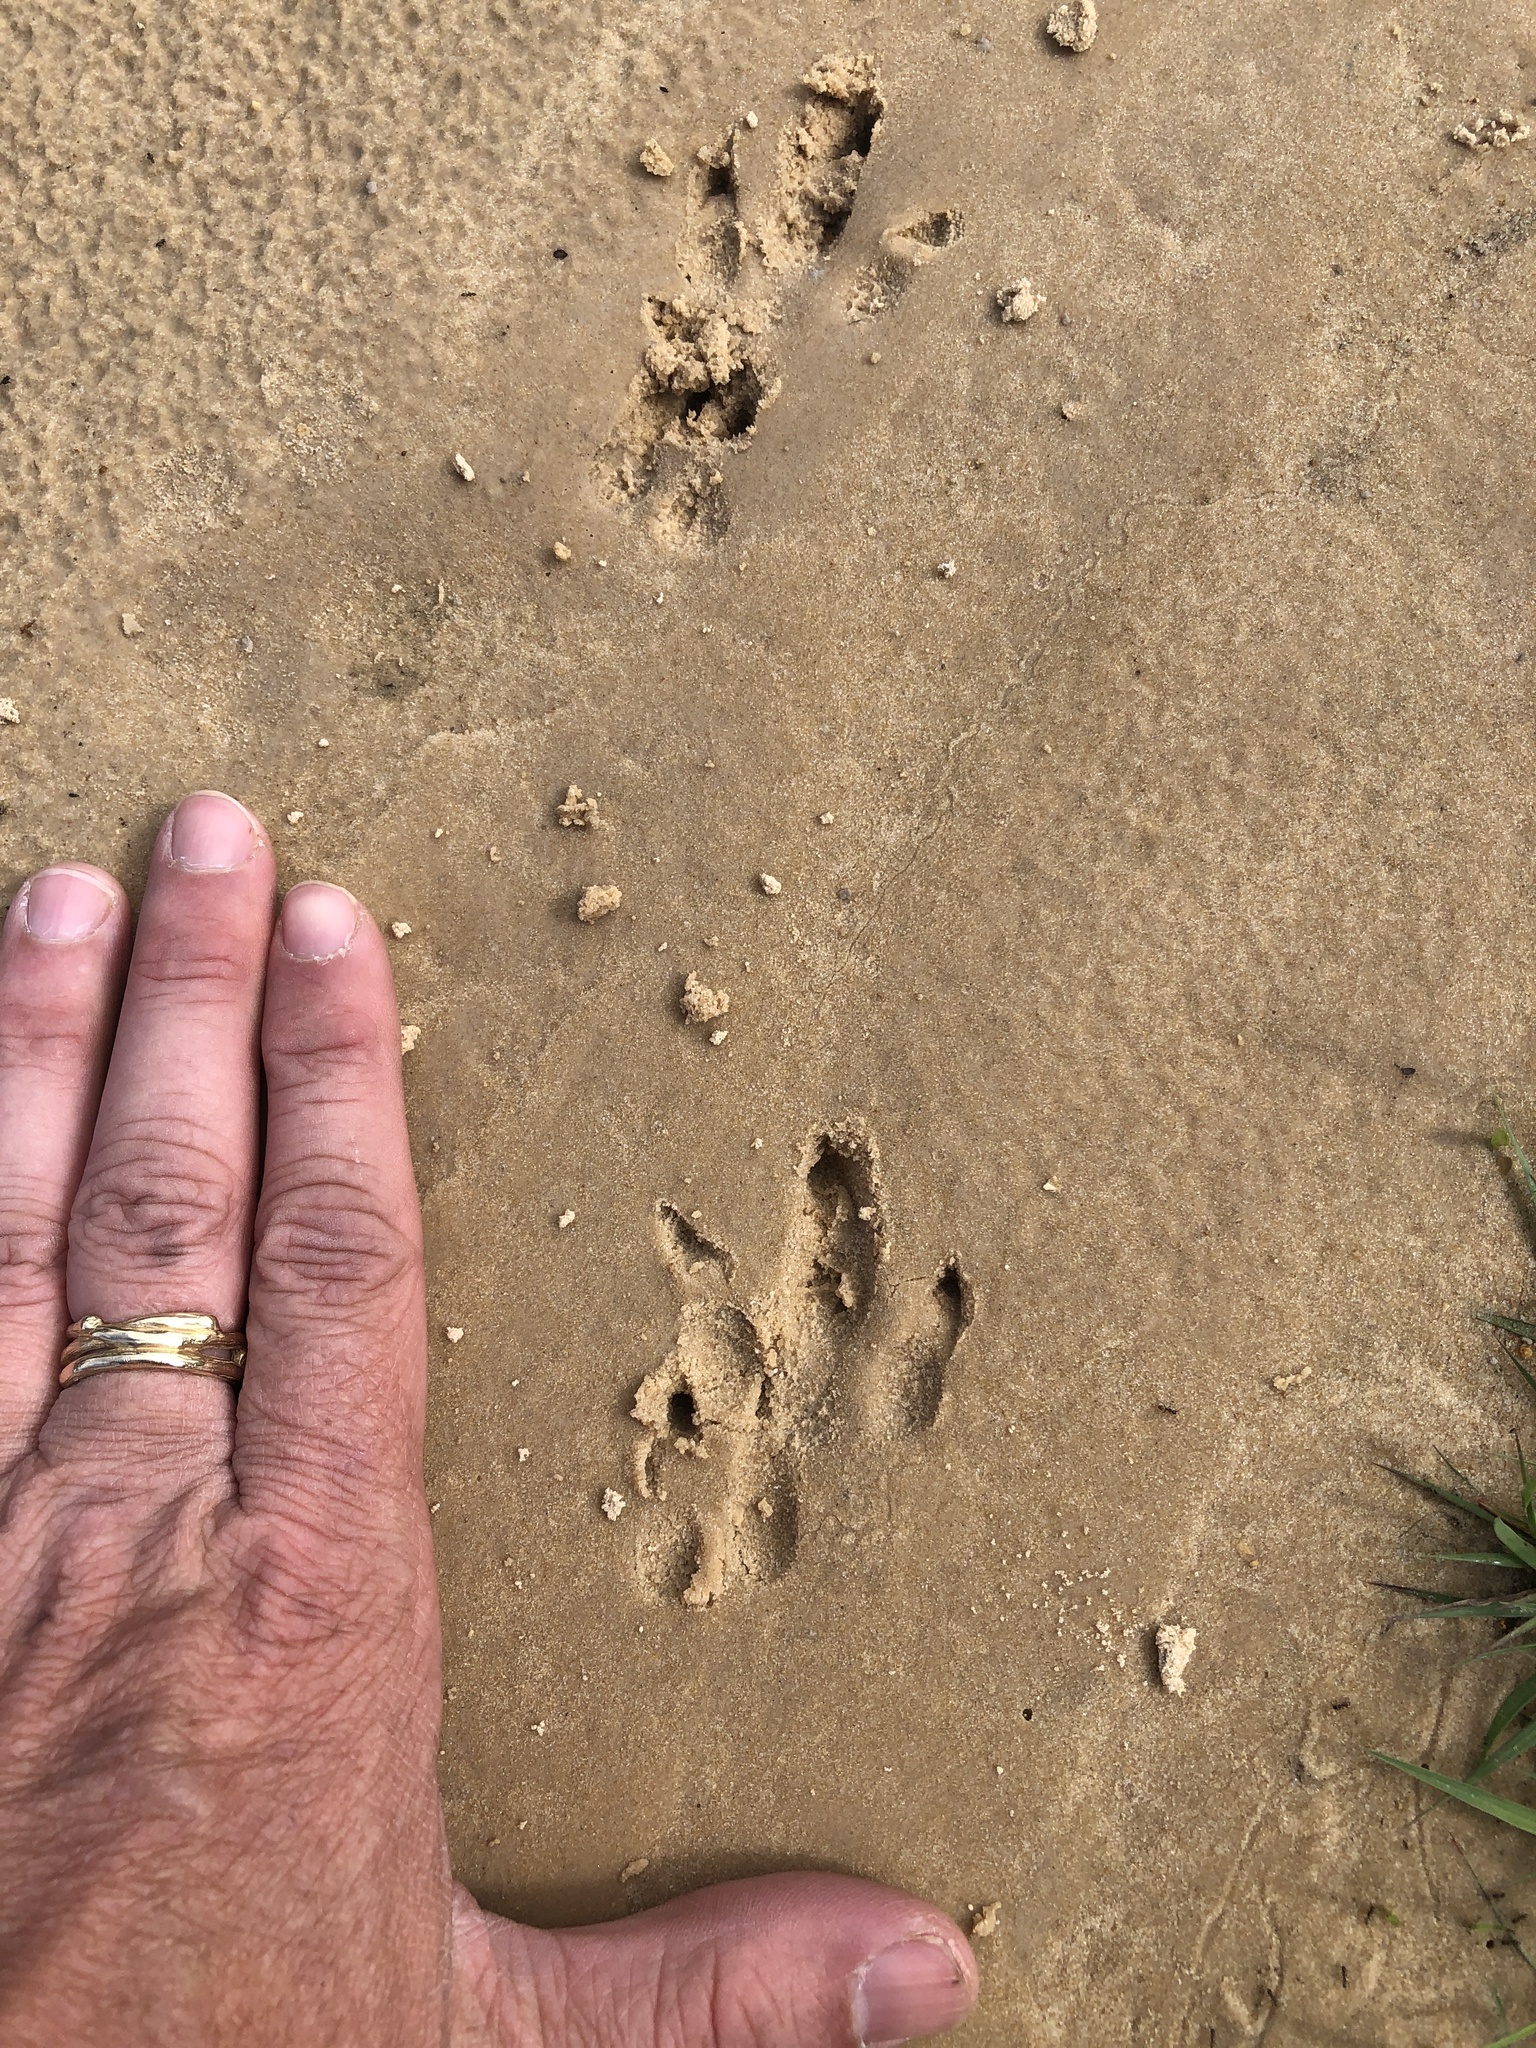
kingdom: Animalia
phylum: Chordata
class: Mammalia
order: Cingulata
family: Dasypodidae
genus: Dasypus
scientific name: Dasypus novemcinctus
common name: Nine-banded armadillo
